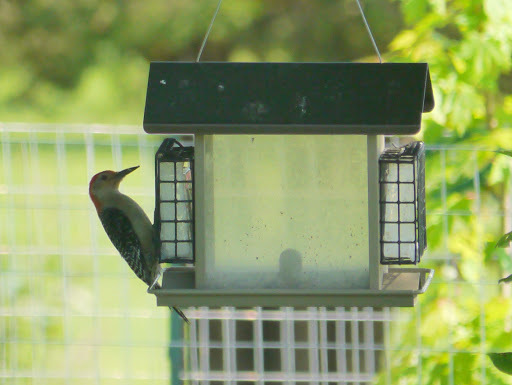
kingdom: Animalia
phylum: Chordata
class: Aves
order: Piciformes
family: Picidae
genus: Melanerpes
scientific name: Melanerpes carolinus
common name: Red-bellied woodpecker
